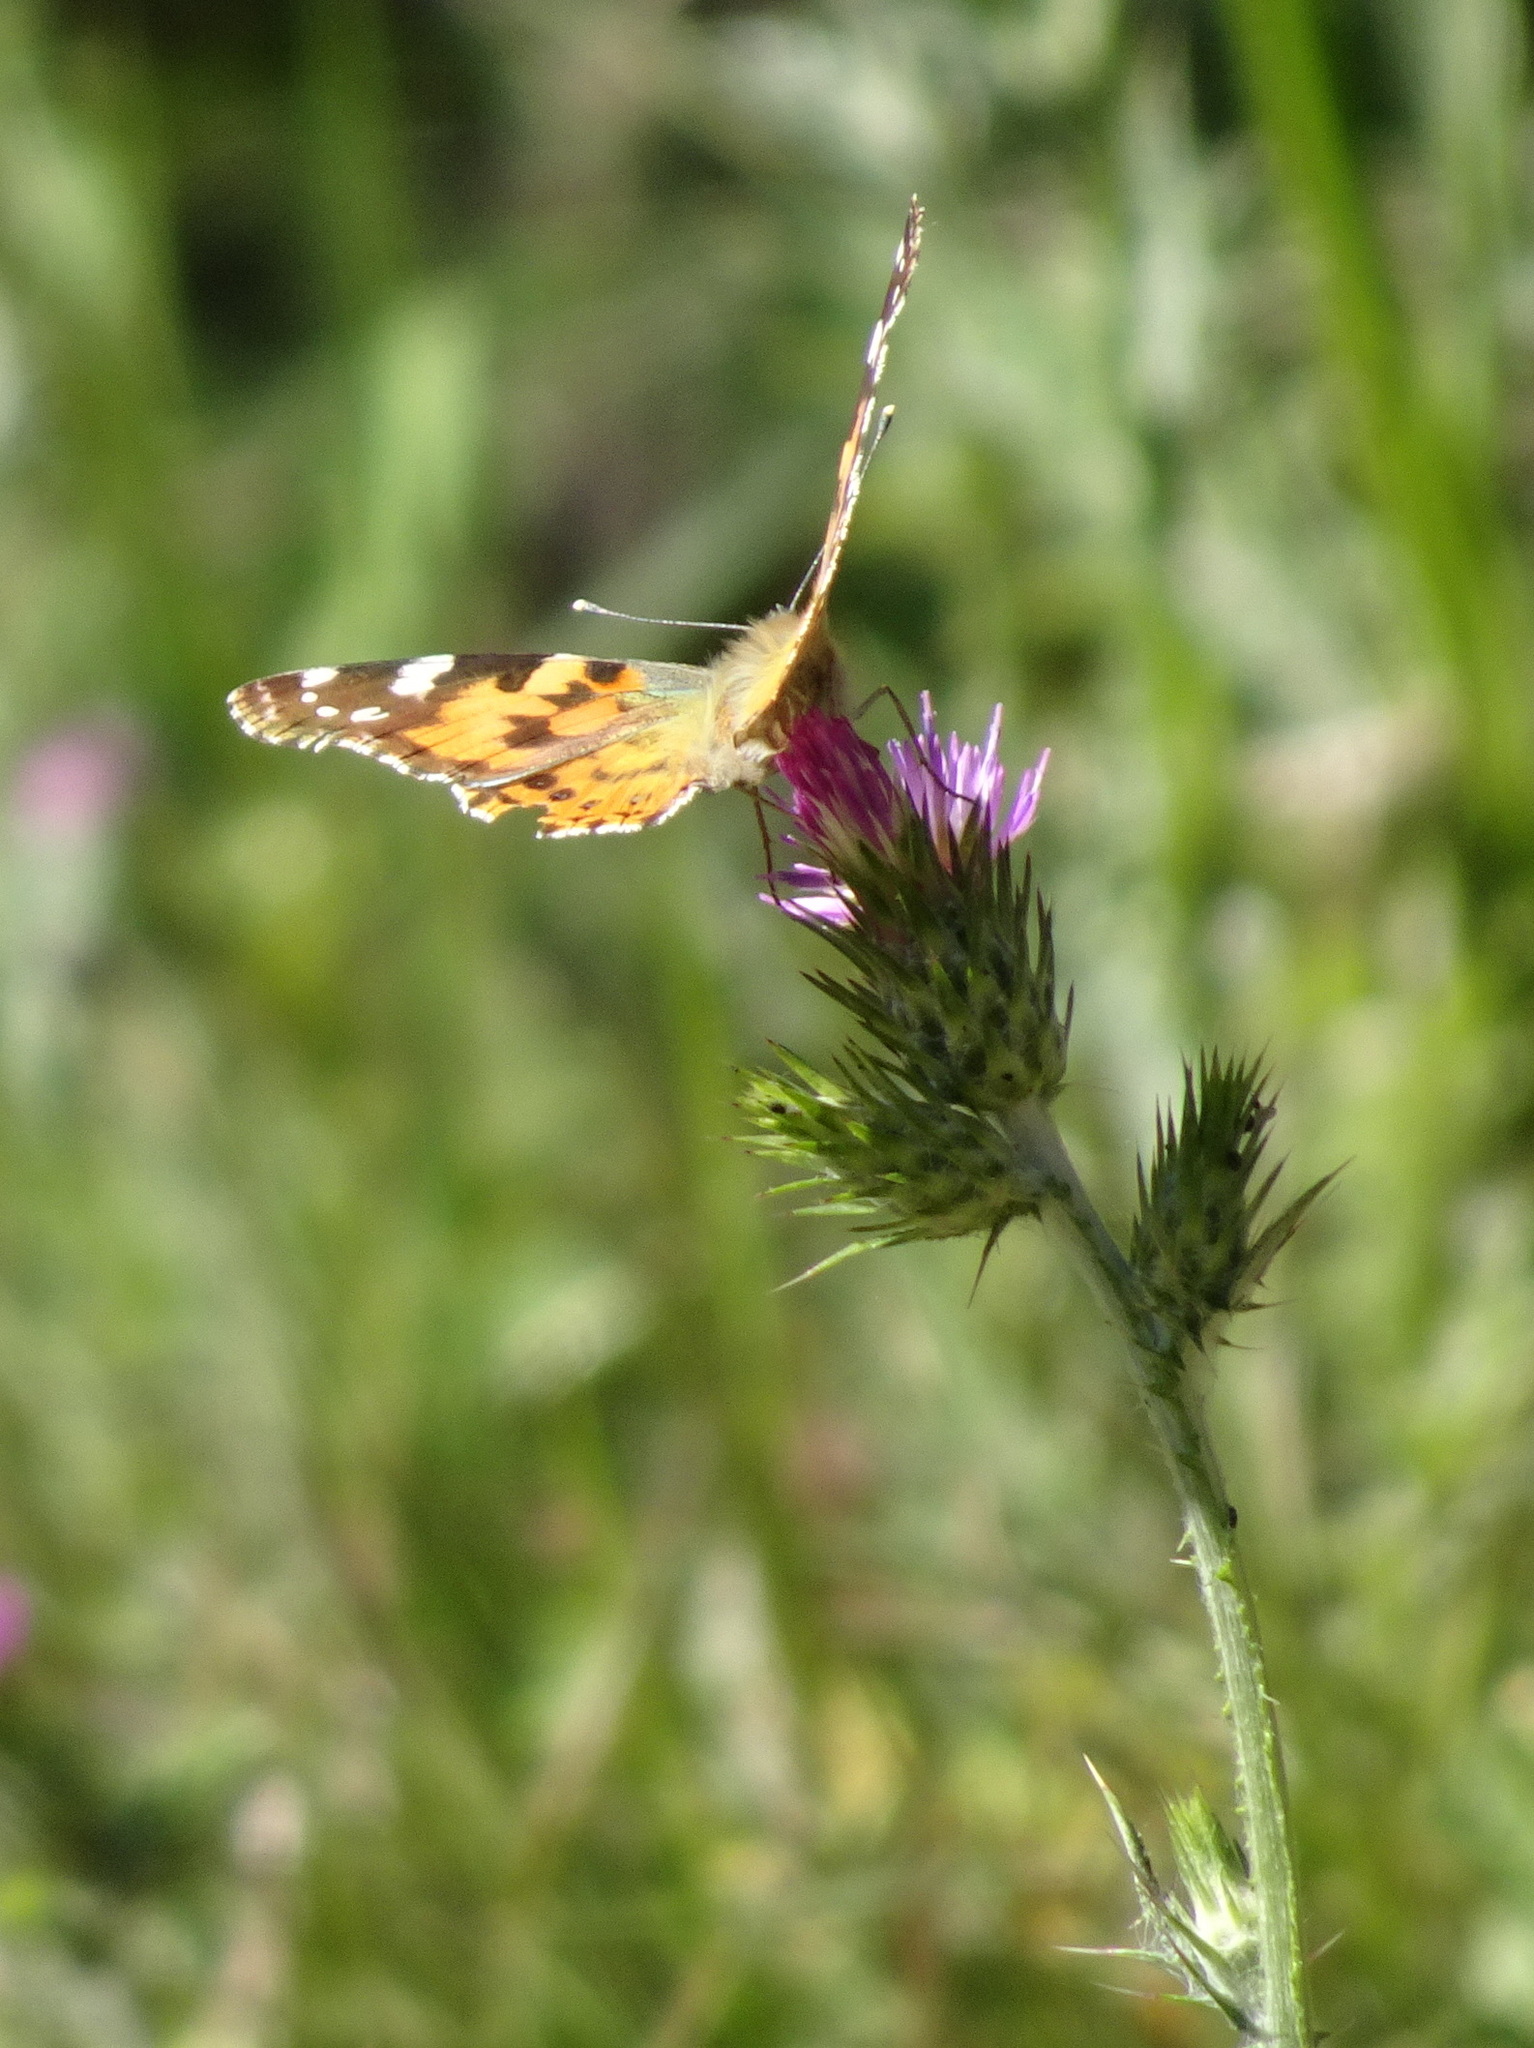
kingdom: Animalia
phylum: Arthropoda
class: Insecta
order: Lepidoptera
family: Nymphalidae
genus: Vanessa
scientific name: Vanessa cardui
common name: Painted lady
